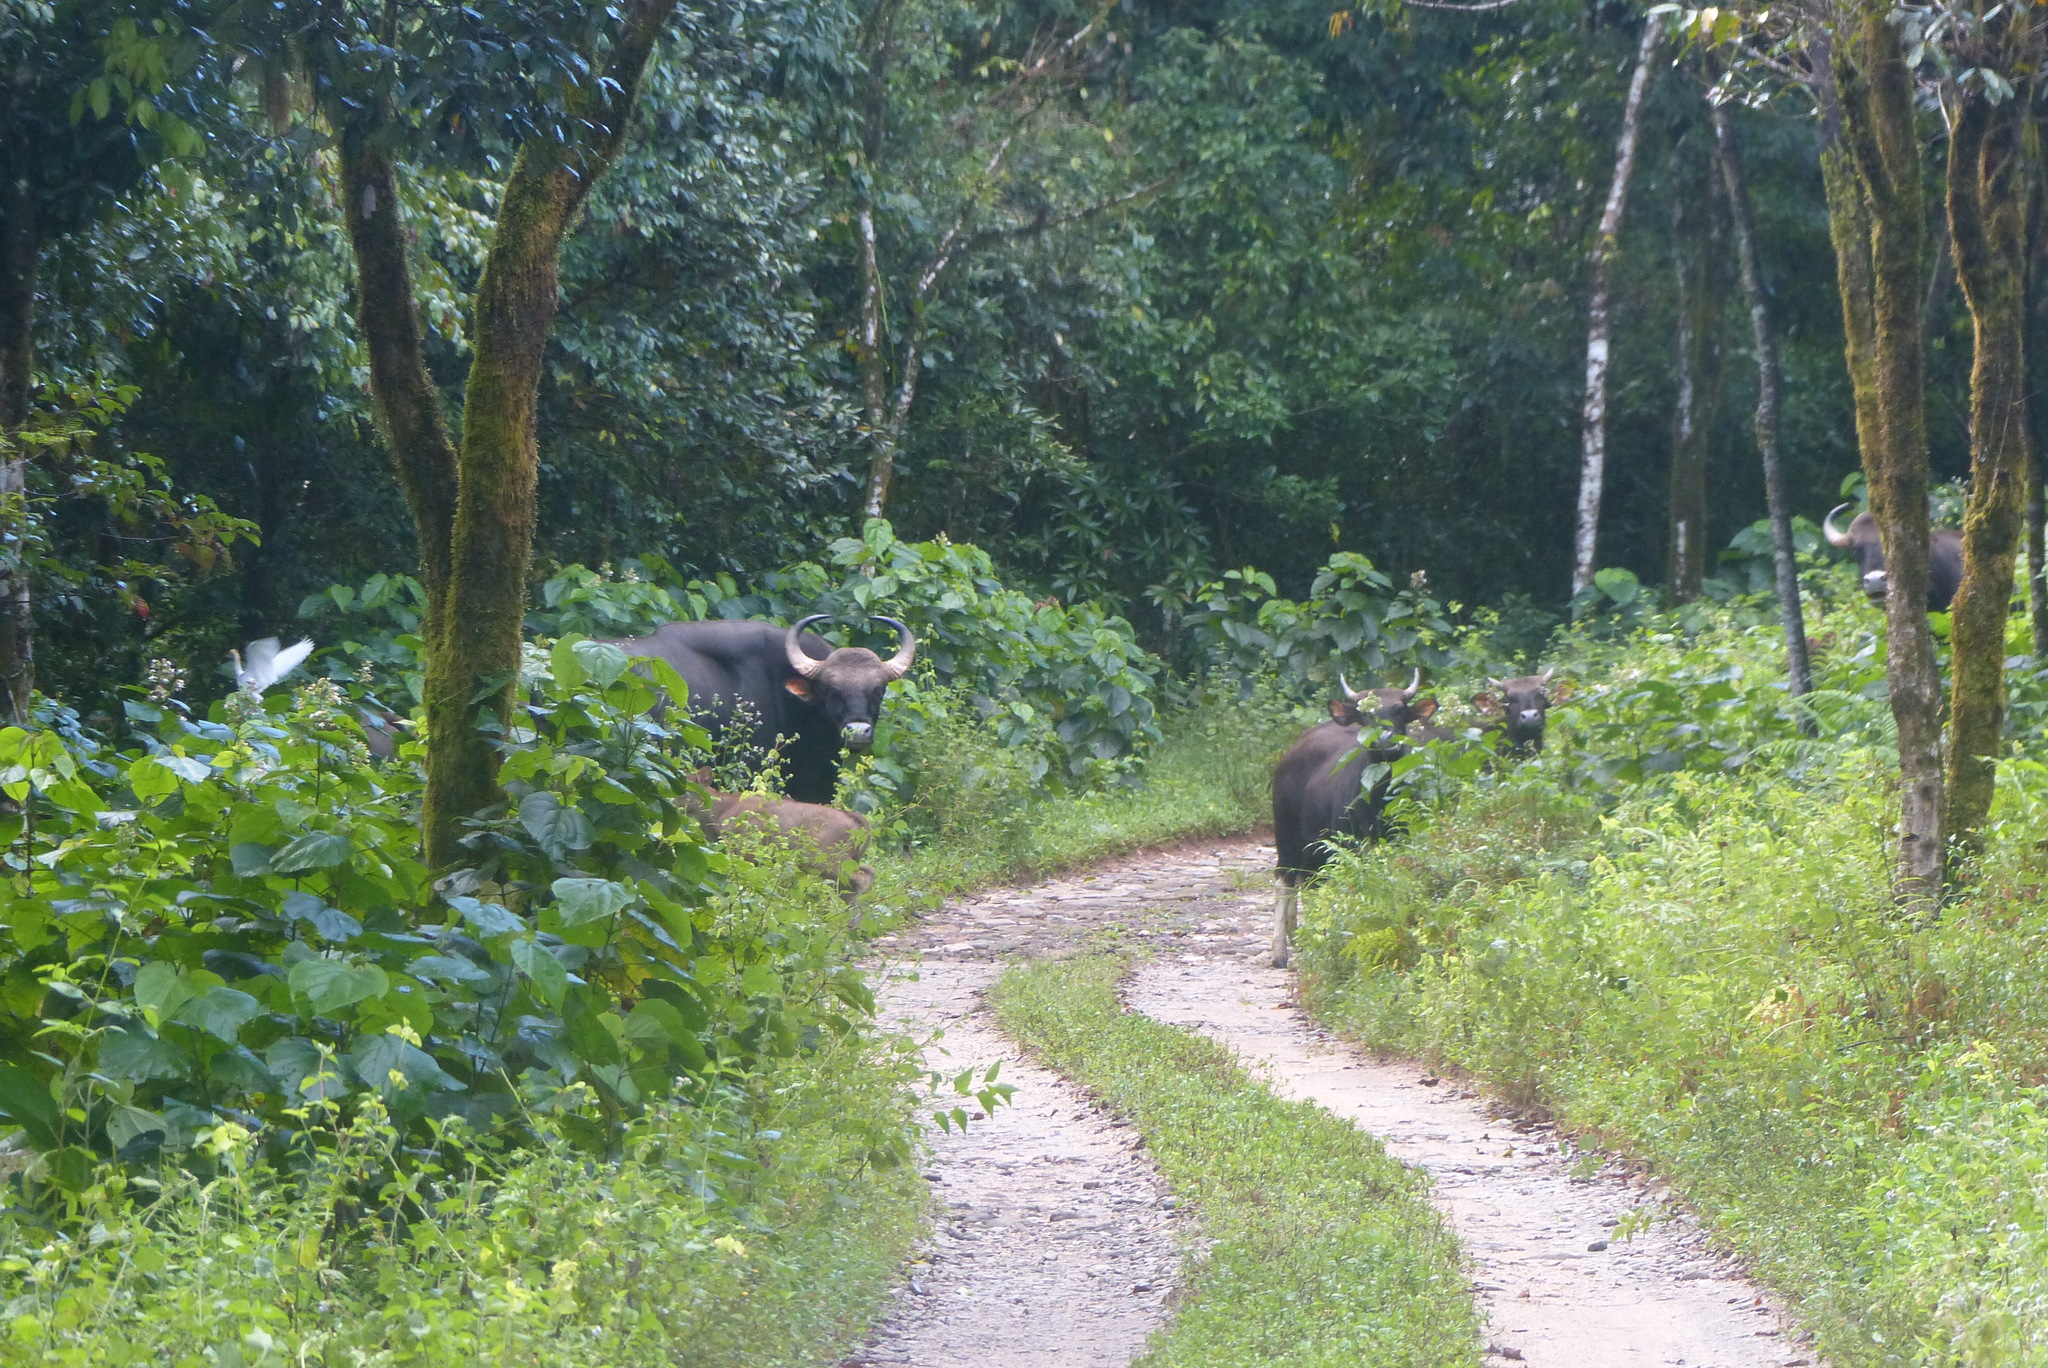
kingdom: Animalia
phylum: Chordata
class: Mammalia
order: Artiodactyla
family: Bovidae
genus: Bos
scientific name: Bos frontalis
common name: Gaur
